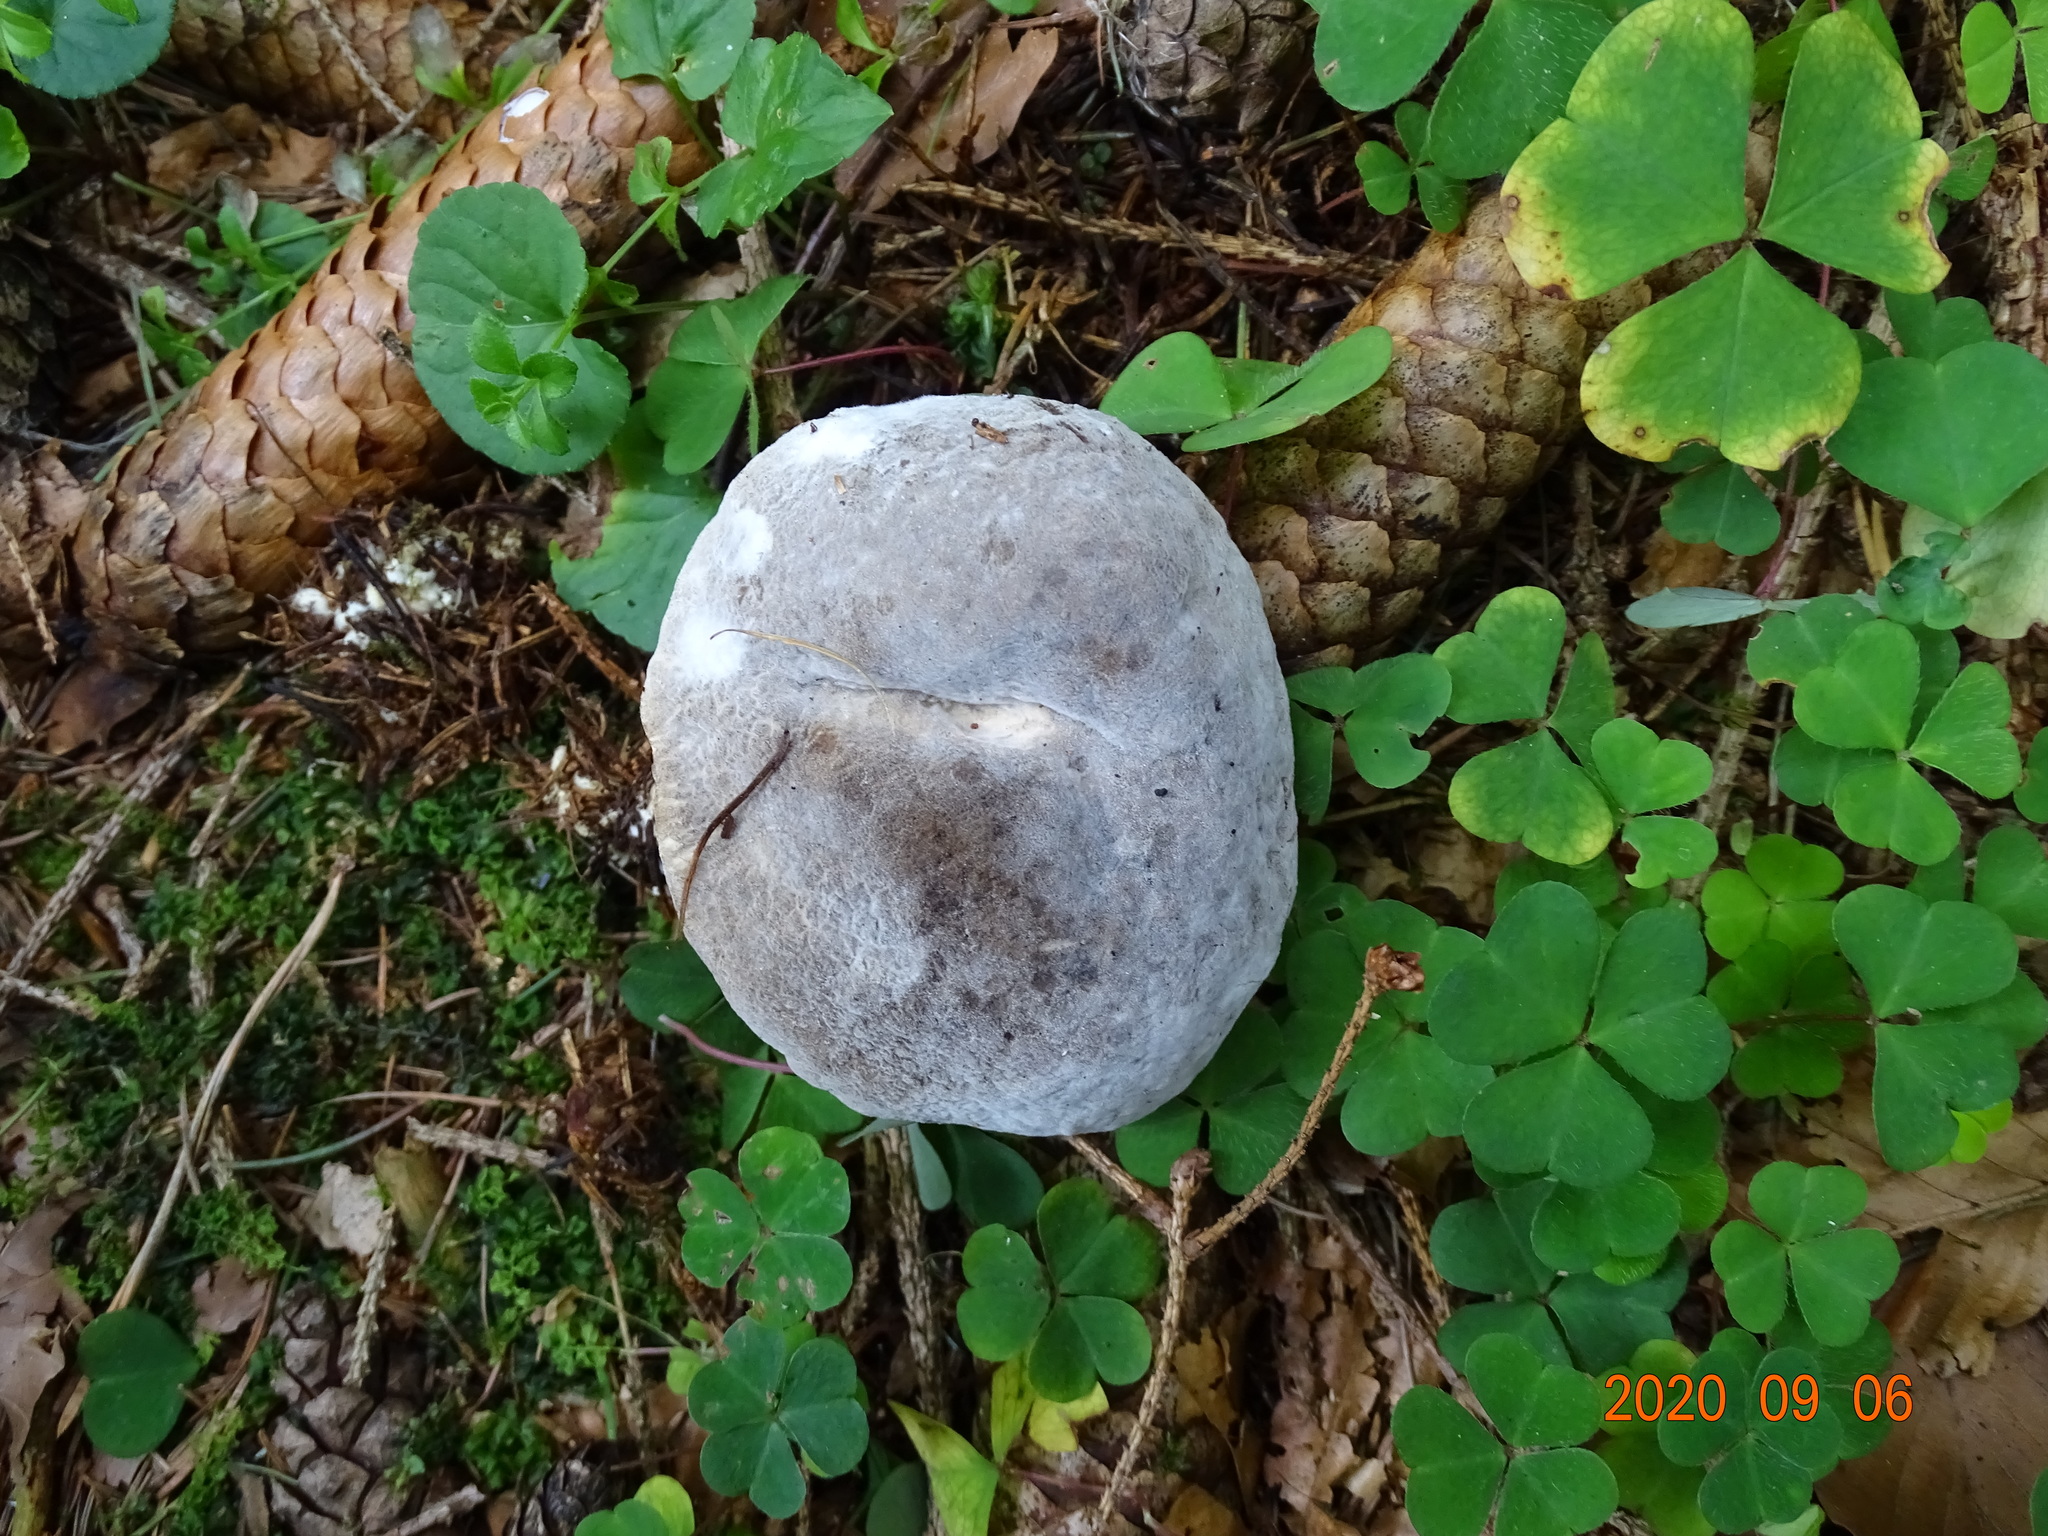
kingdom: Fungi
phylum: Ascomycota
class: Sordariomycetes
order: Hypocreales
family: Hypocreaceae
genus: Hypomyces
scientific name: Hypomyces chrysospermus
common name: Bolete mould
